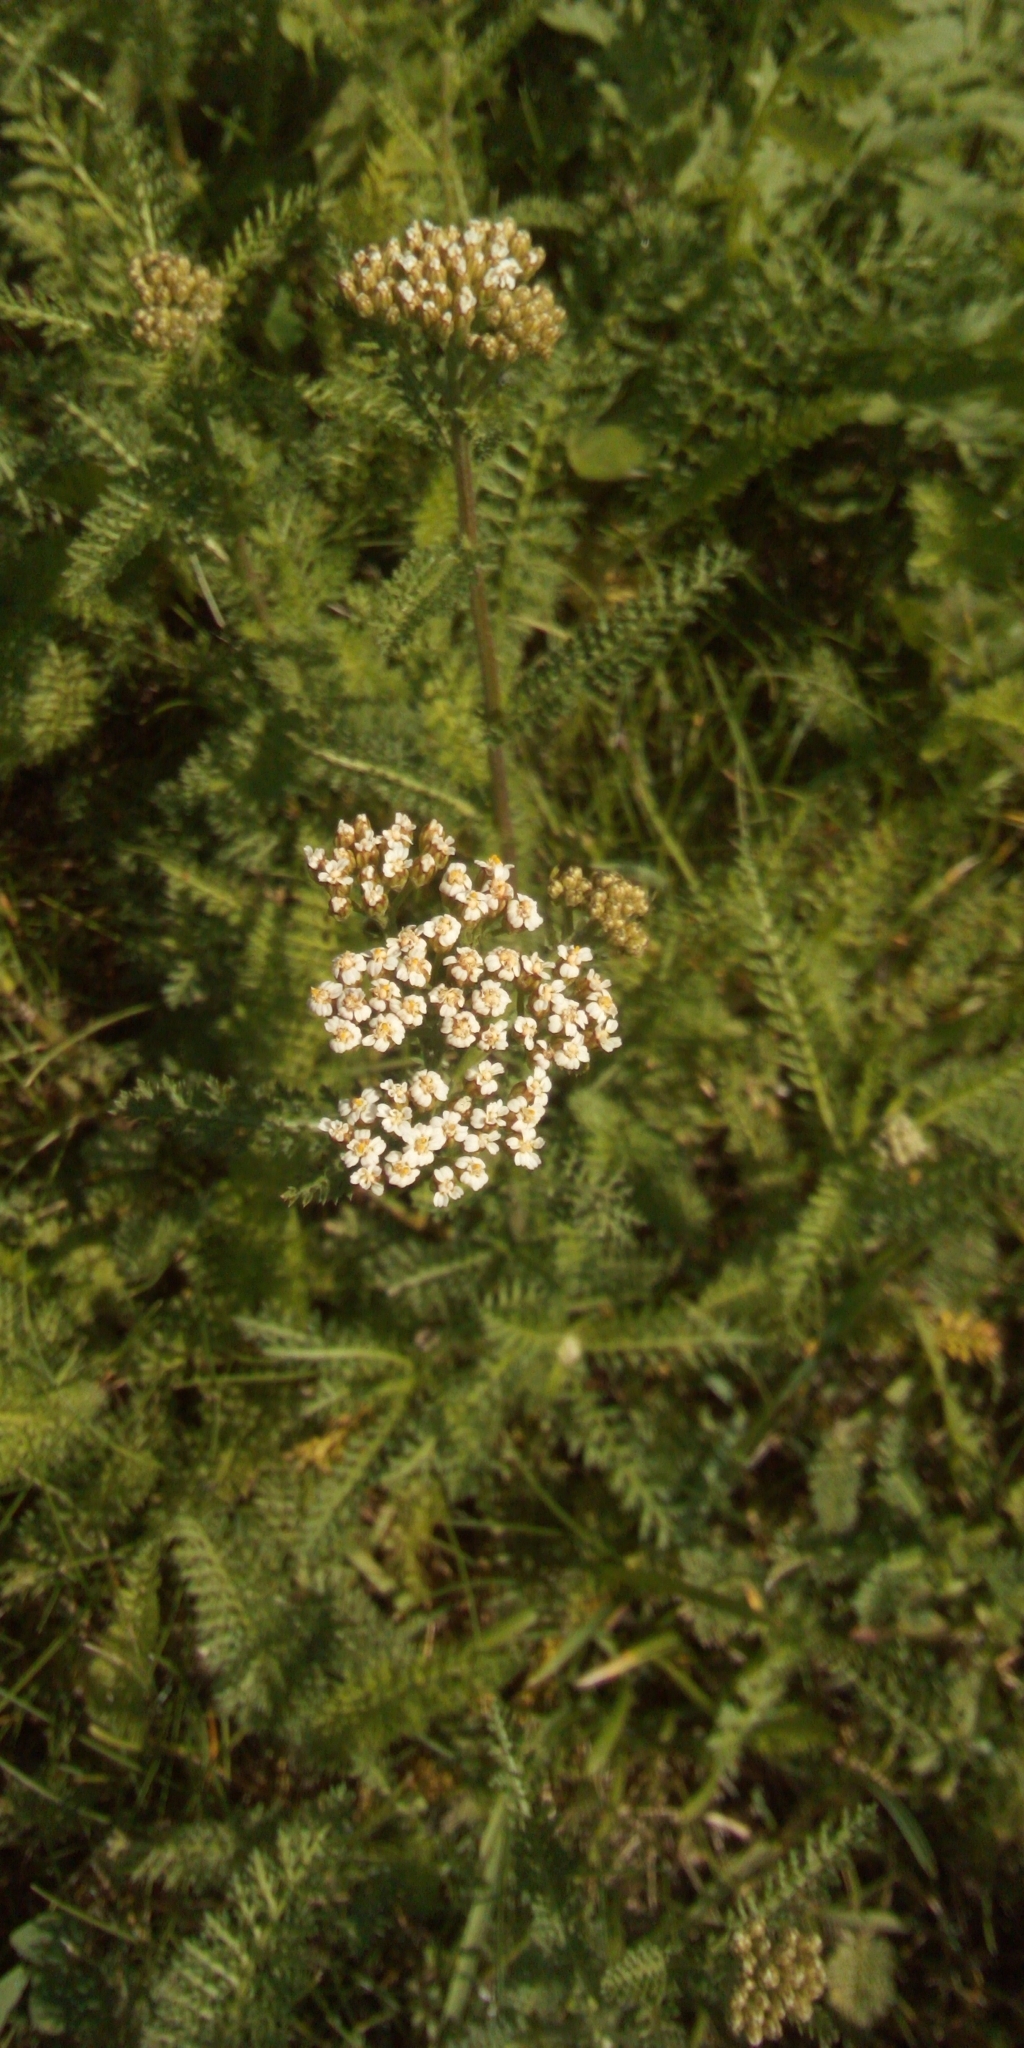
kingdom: Plantae
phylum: Tracheophyta
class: Magnoliopsida
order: Asterales
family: Asteraceae
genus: Achillea
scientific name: Achillea millefolium
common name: Yarrow
